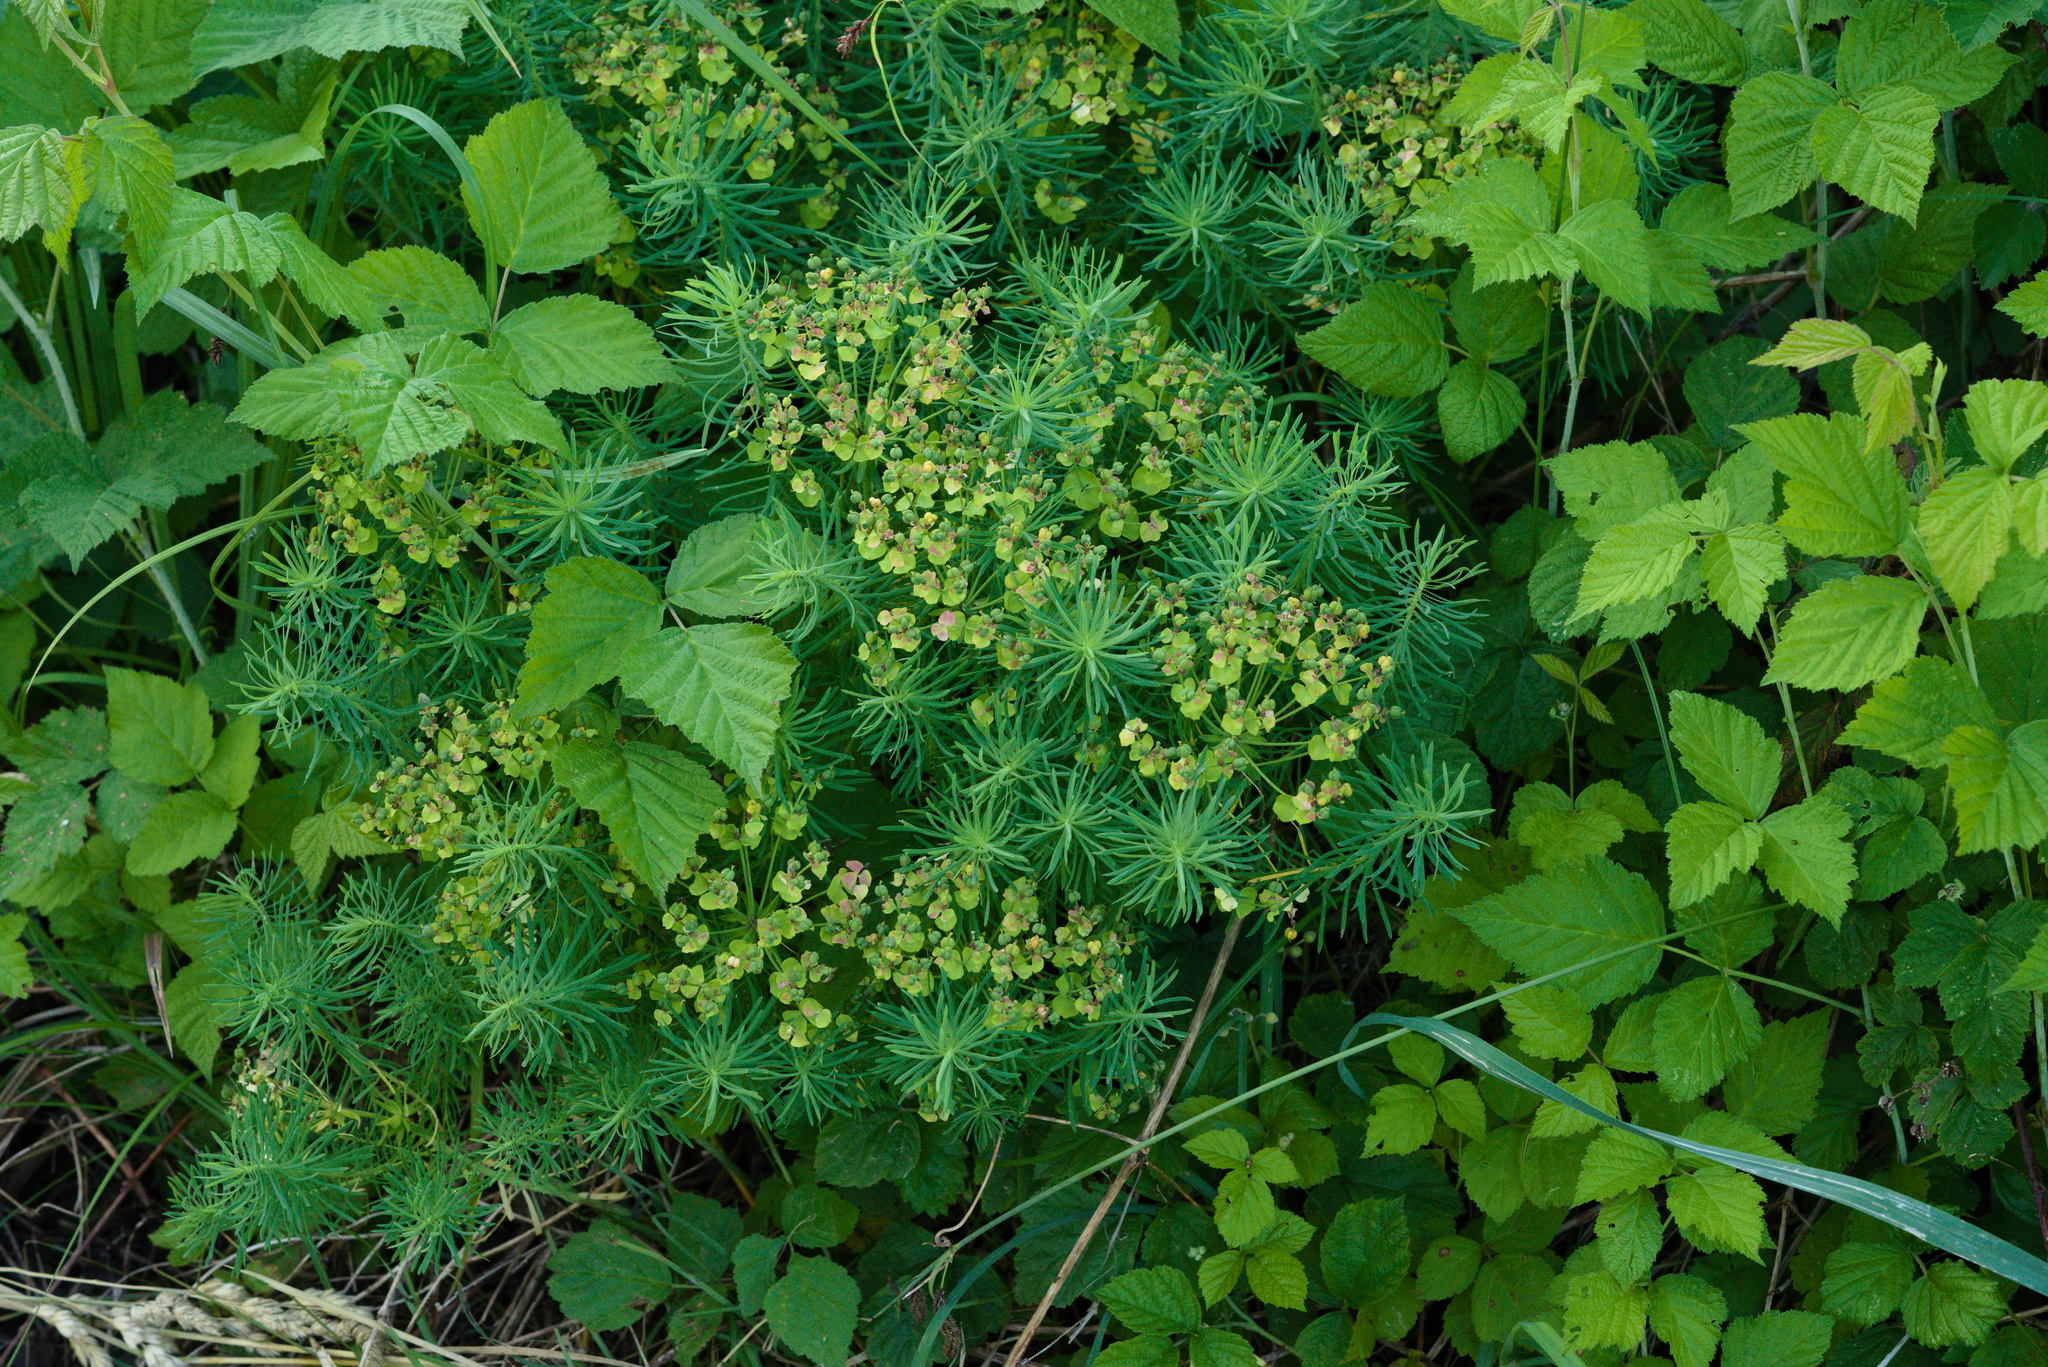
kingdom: Plantae
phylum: Tracheophyta
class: Magnoliopsida
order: Malpighiales
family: Euphorbiaceae
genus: Euphorbia
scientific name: Euphorbia cyparissias
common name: Cypress spurge
